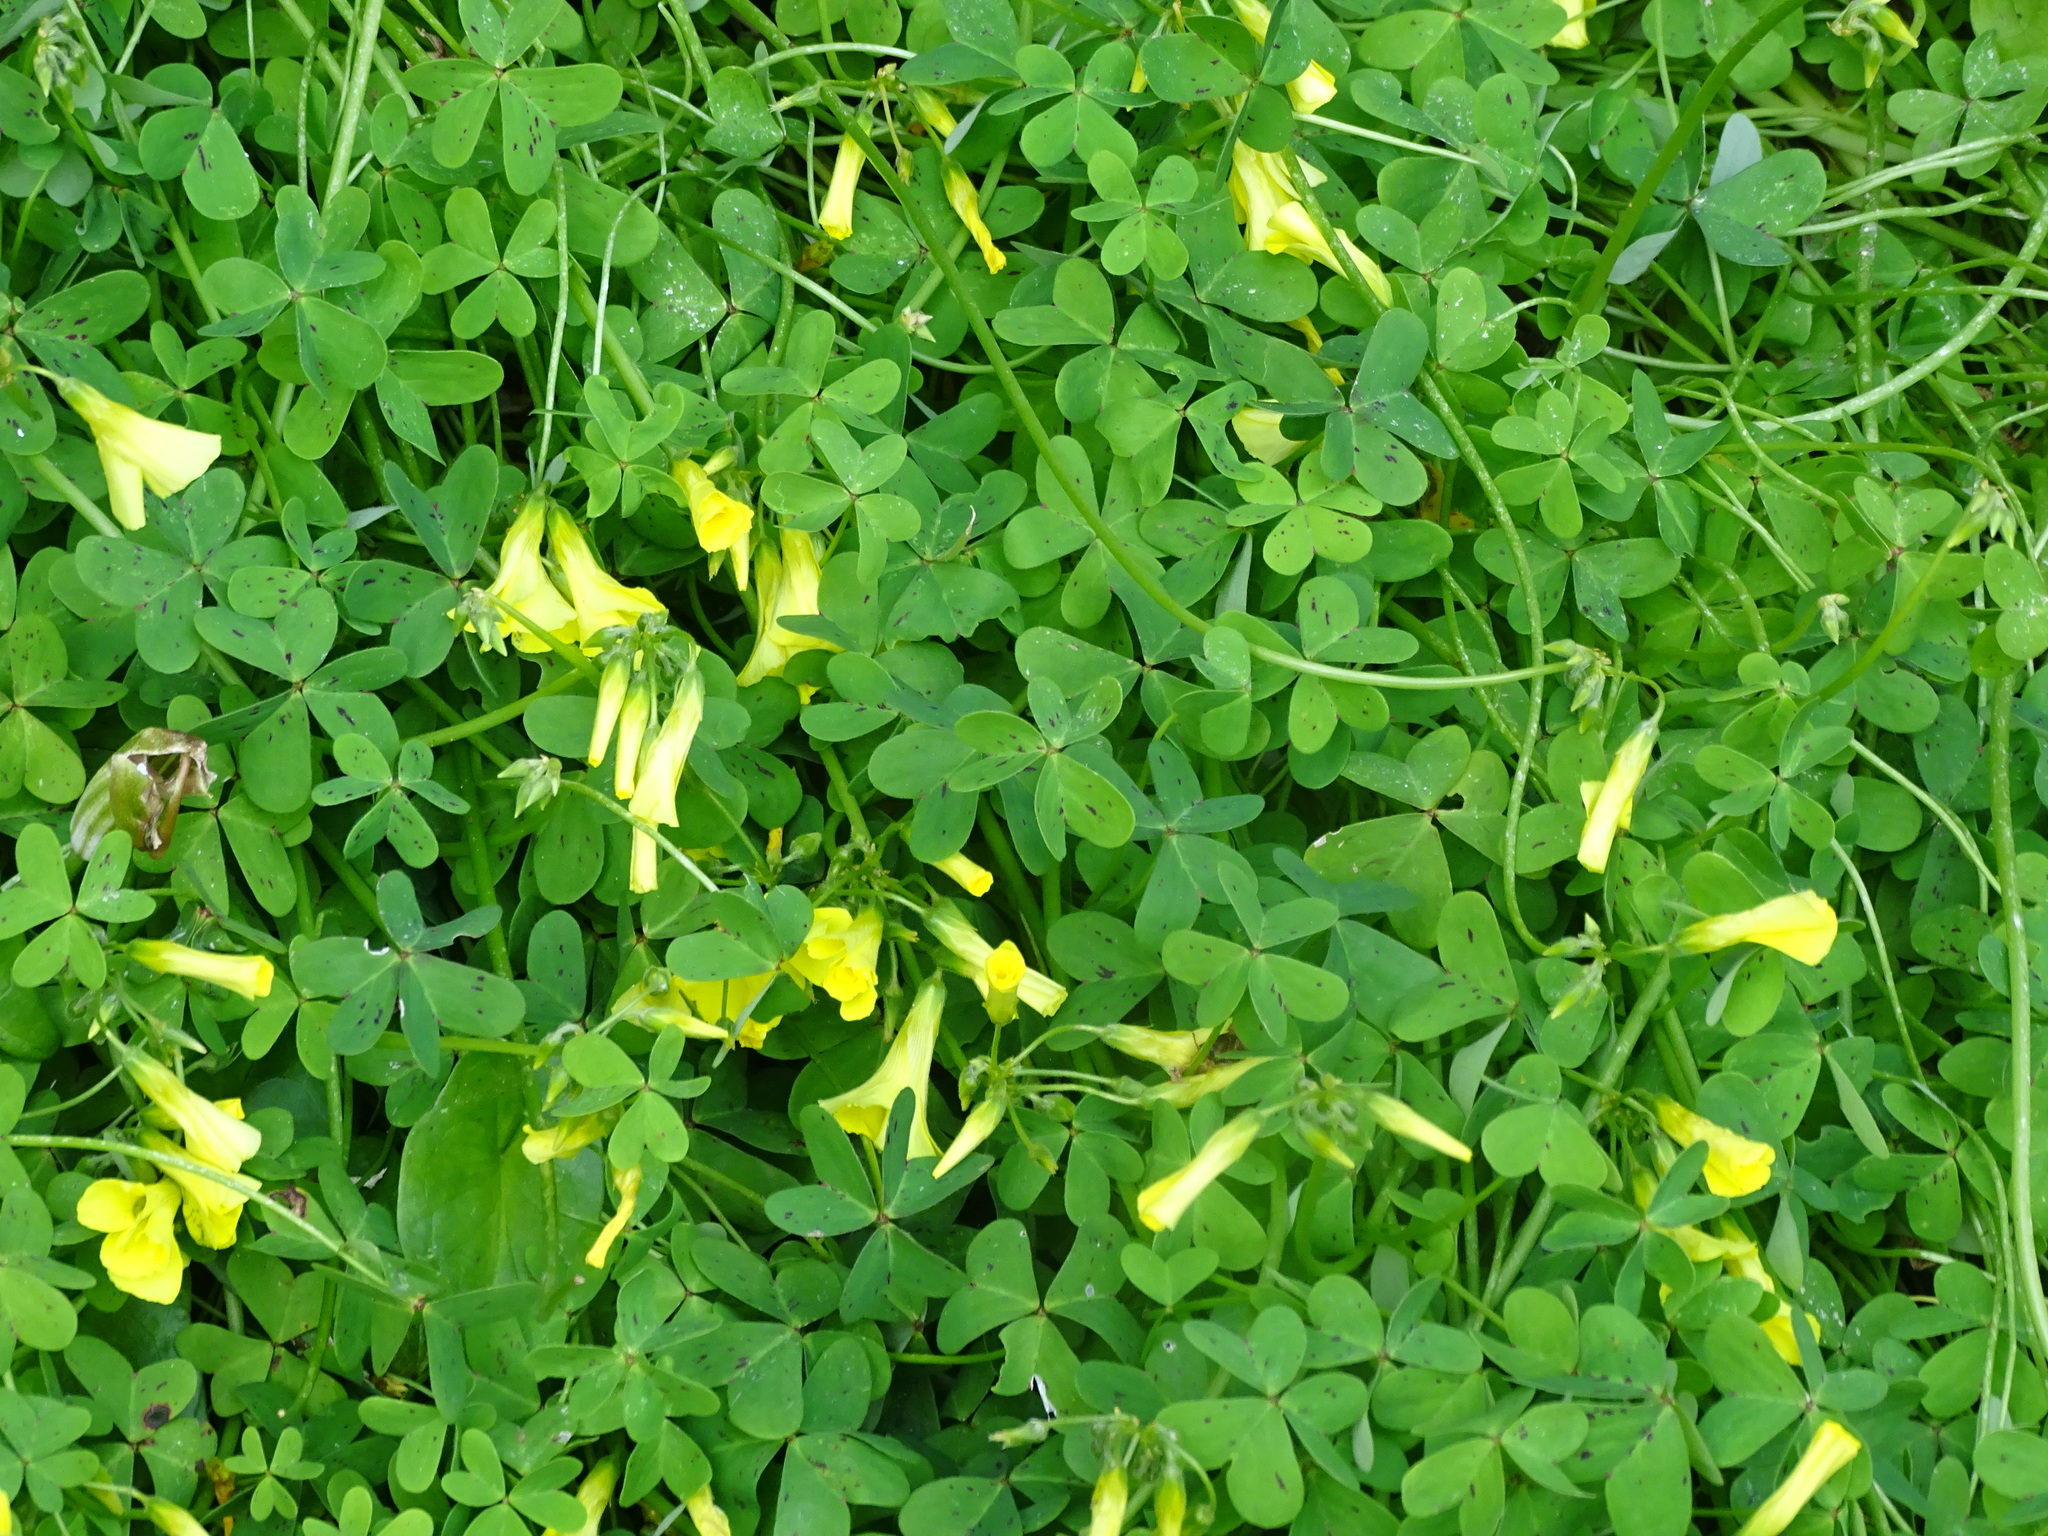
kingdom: Plantae
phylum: Tracheophyta
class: Magnoliopsida
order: Oxalidales
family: Oxalidaceae
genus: Oxalis
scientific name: Oxalis pes-caprae
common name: Bermuda-buttercup
